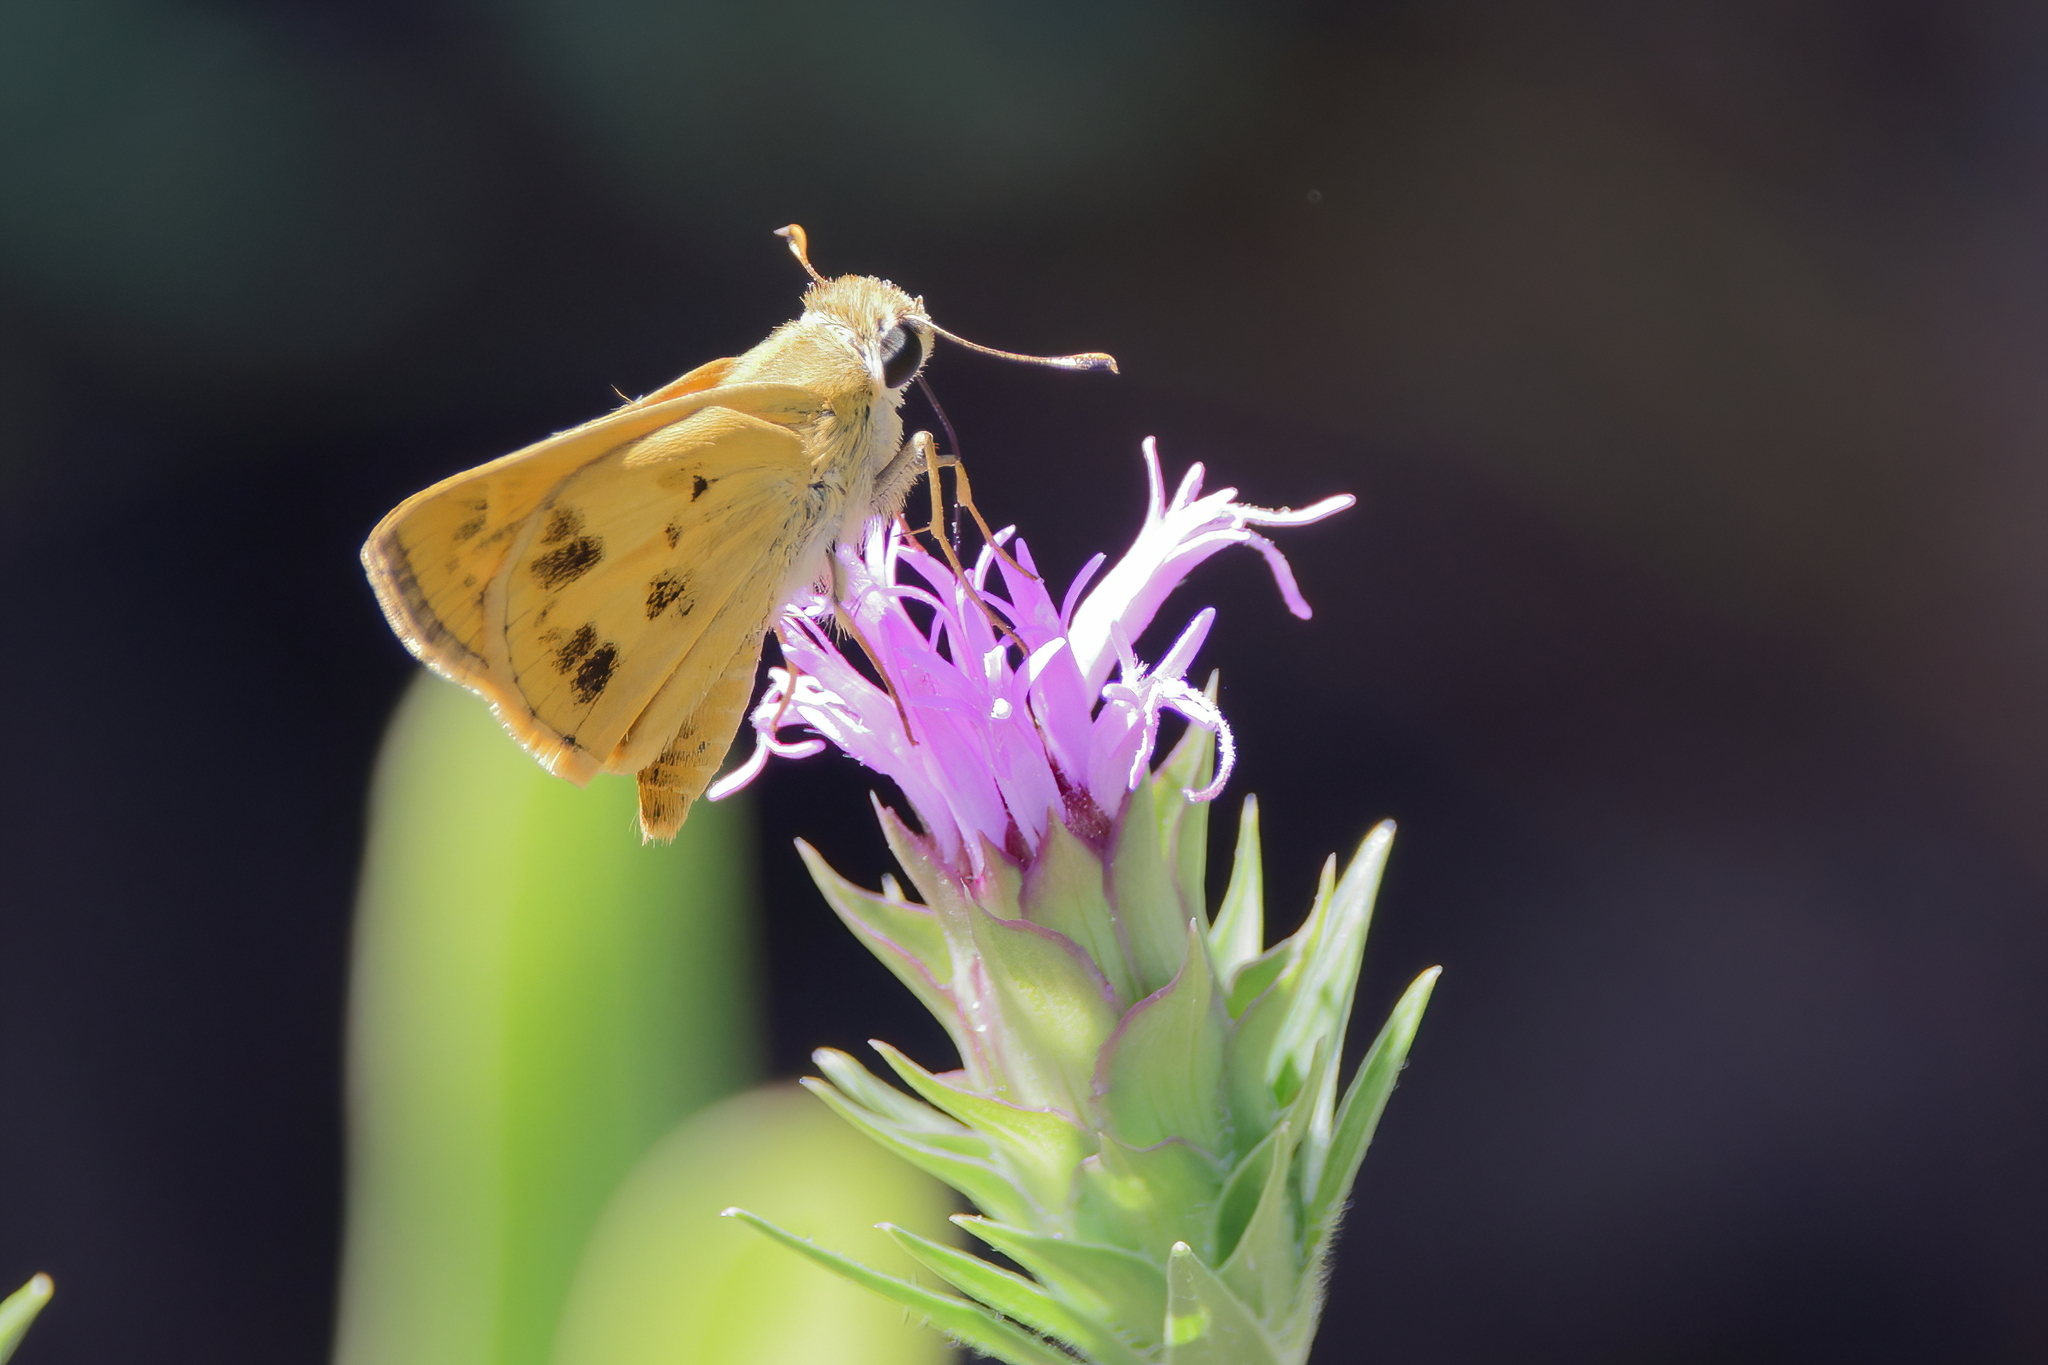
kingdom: Animalia
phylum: Arthropoda
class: Insecta
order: Lepidoptera
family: Hesperiidae
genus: Polites
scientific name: Polites vibex
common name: Whirlabout
